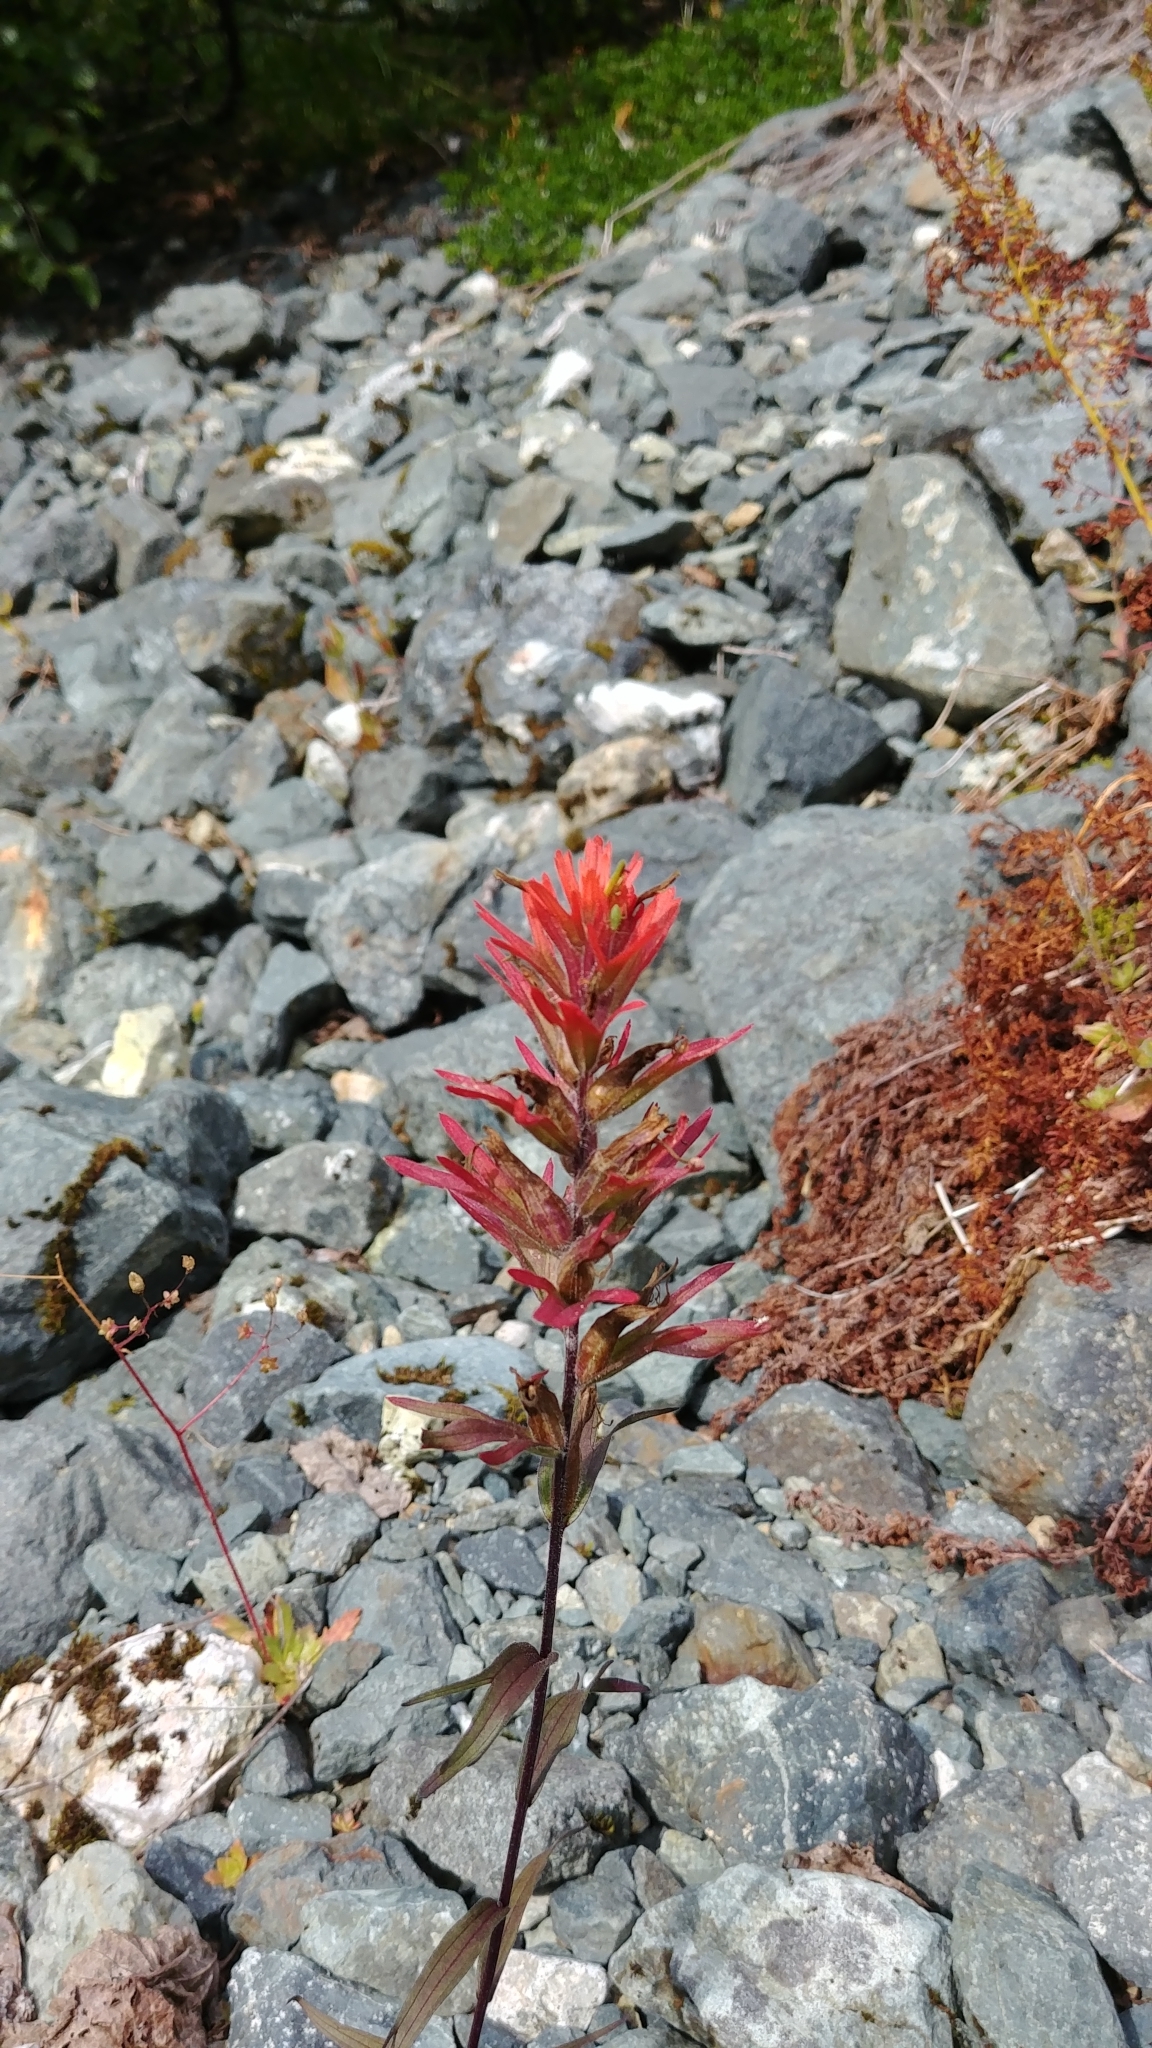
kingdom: Plantae
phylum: Tracheophyta
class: Magnoliopsida
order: Lamiales
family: Orobanchaceae
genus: Castilleja
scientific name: Castilleja miniata
